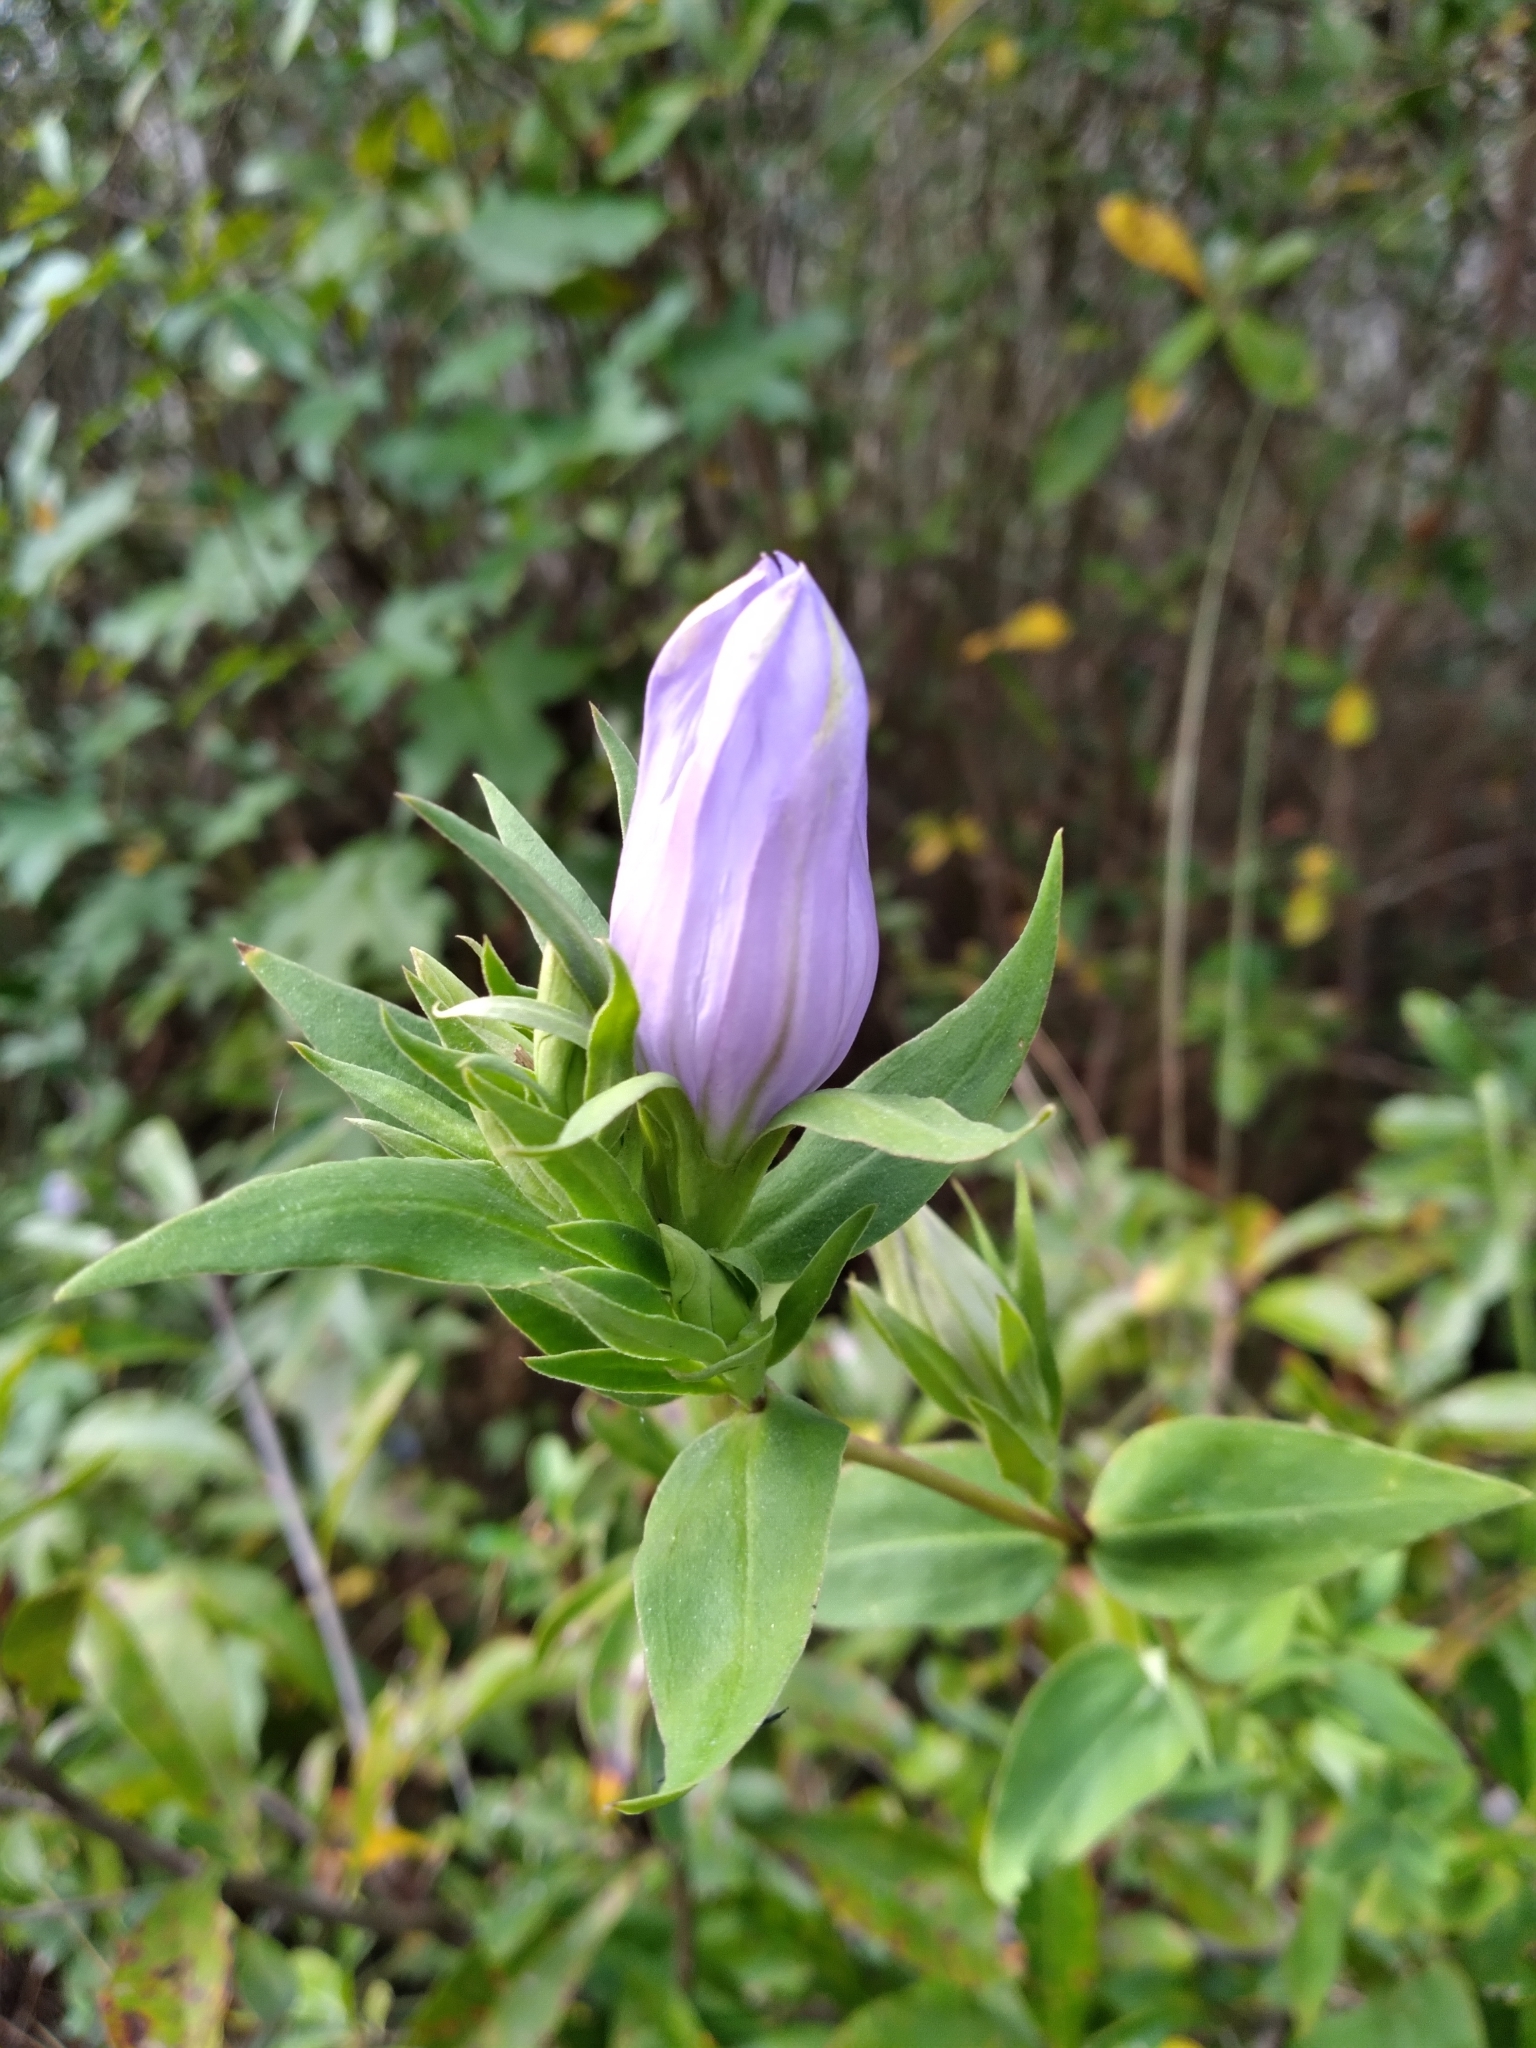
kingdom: Plantae
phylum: Tracheophyta
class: Magnoliopsida
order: Gentianales
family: Gentianaceae
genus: Gentiana
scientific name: Gentiana catesbaei
